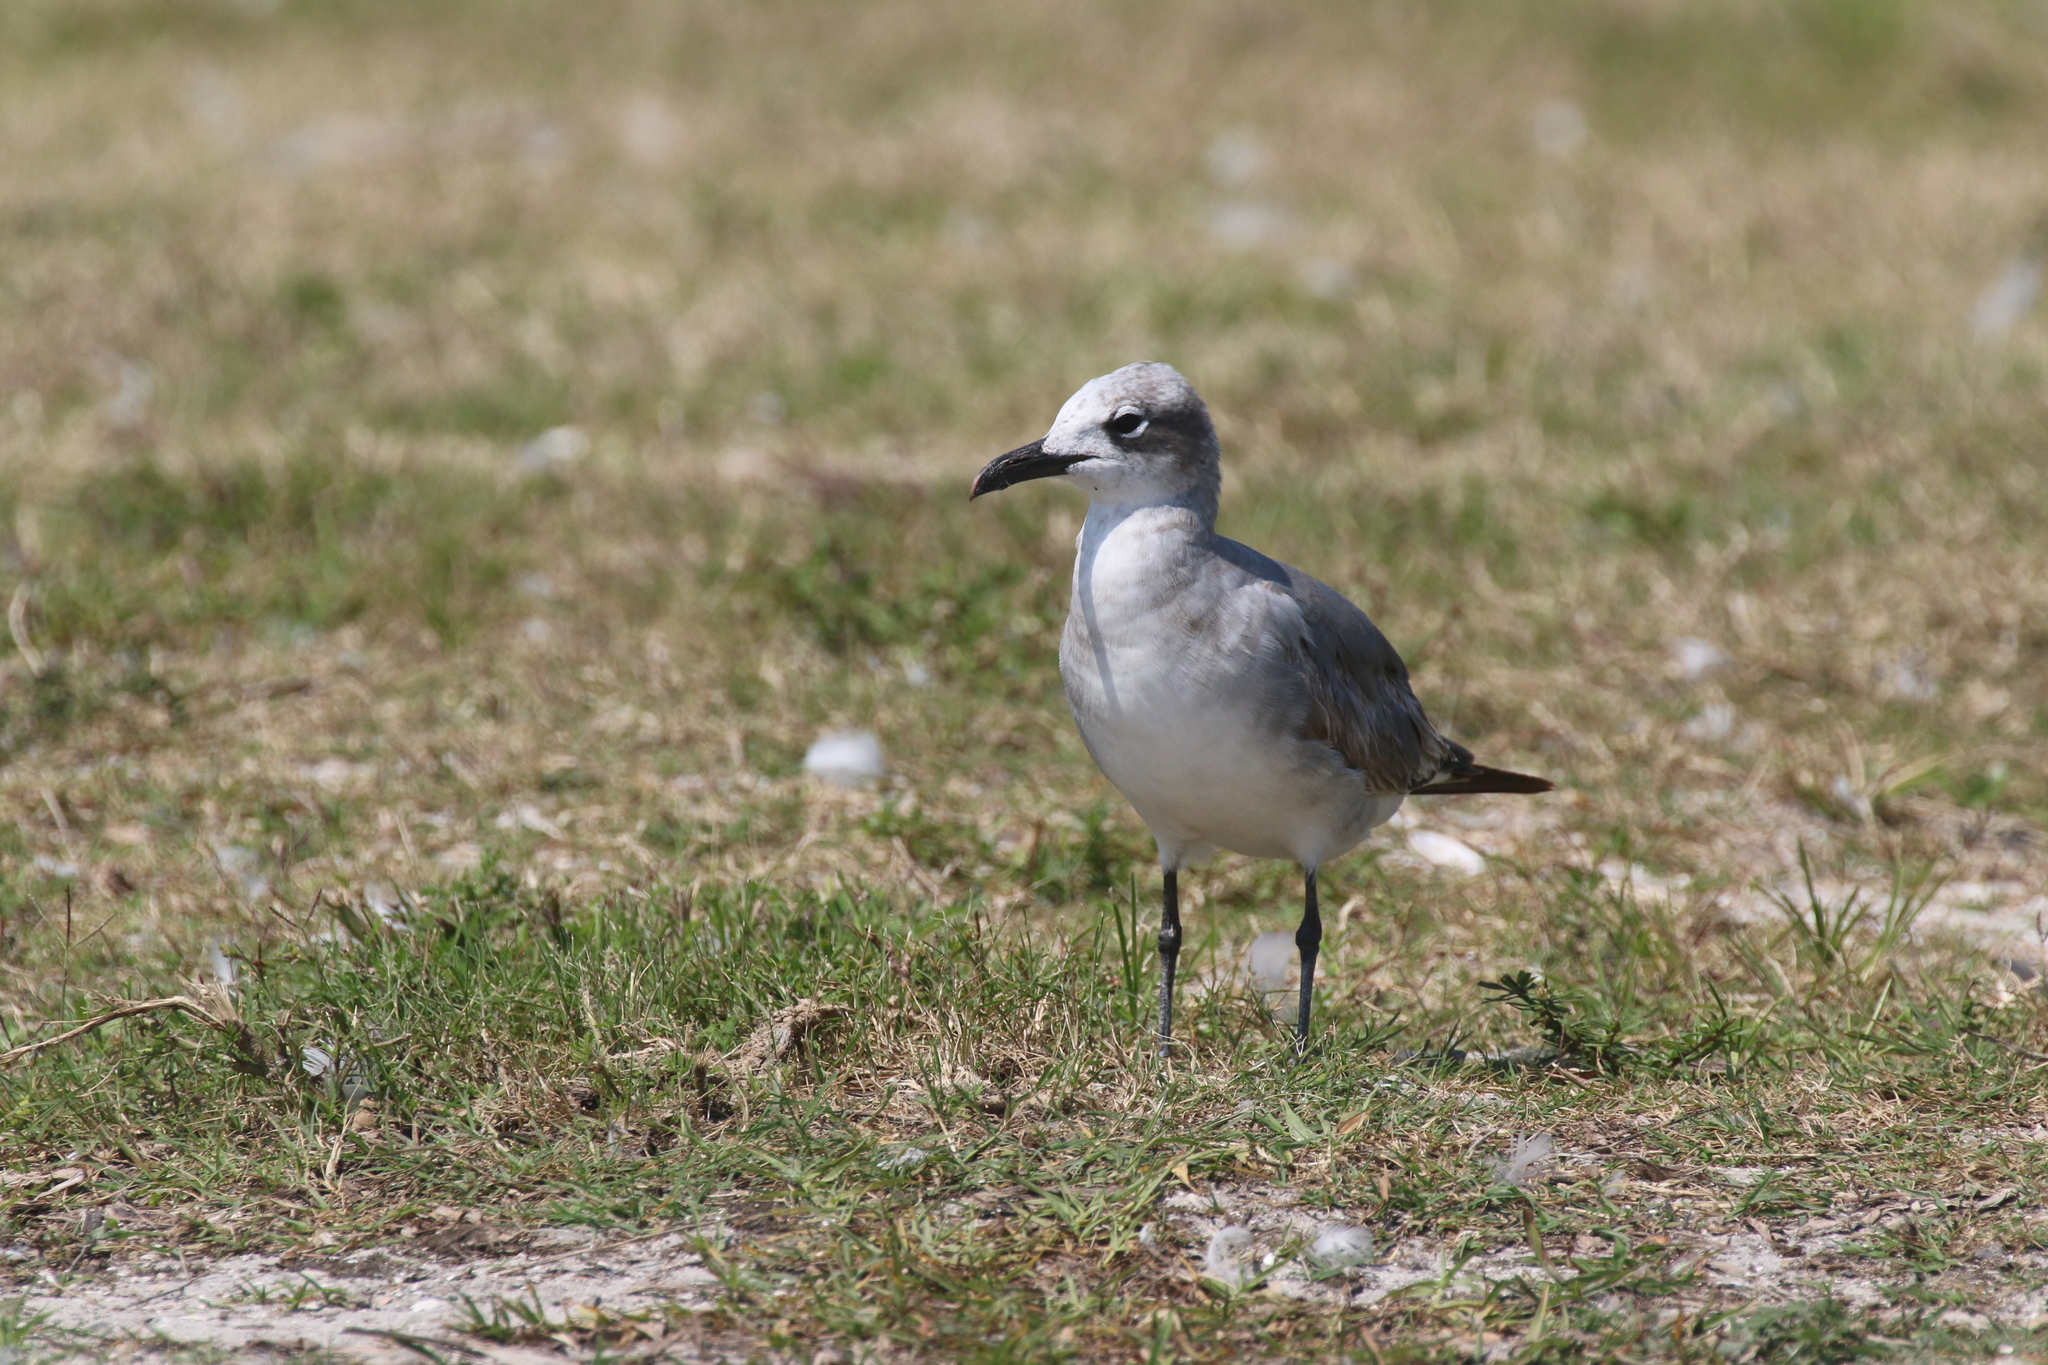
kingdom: Animalia
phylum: Chordata
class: Aves
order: Charadriiformes
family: Laridae
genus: Leucophaeus
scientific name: Leucophaeus atricilla
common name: Laughing gull
